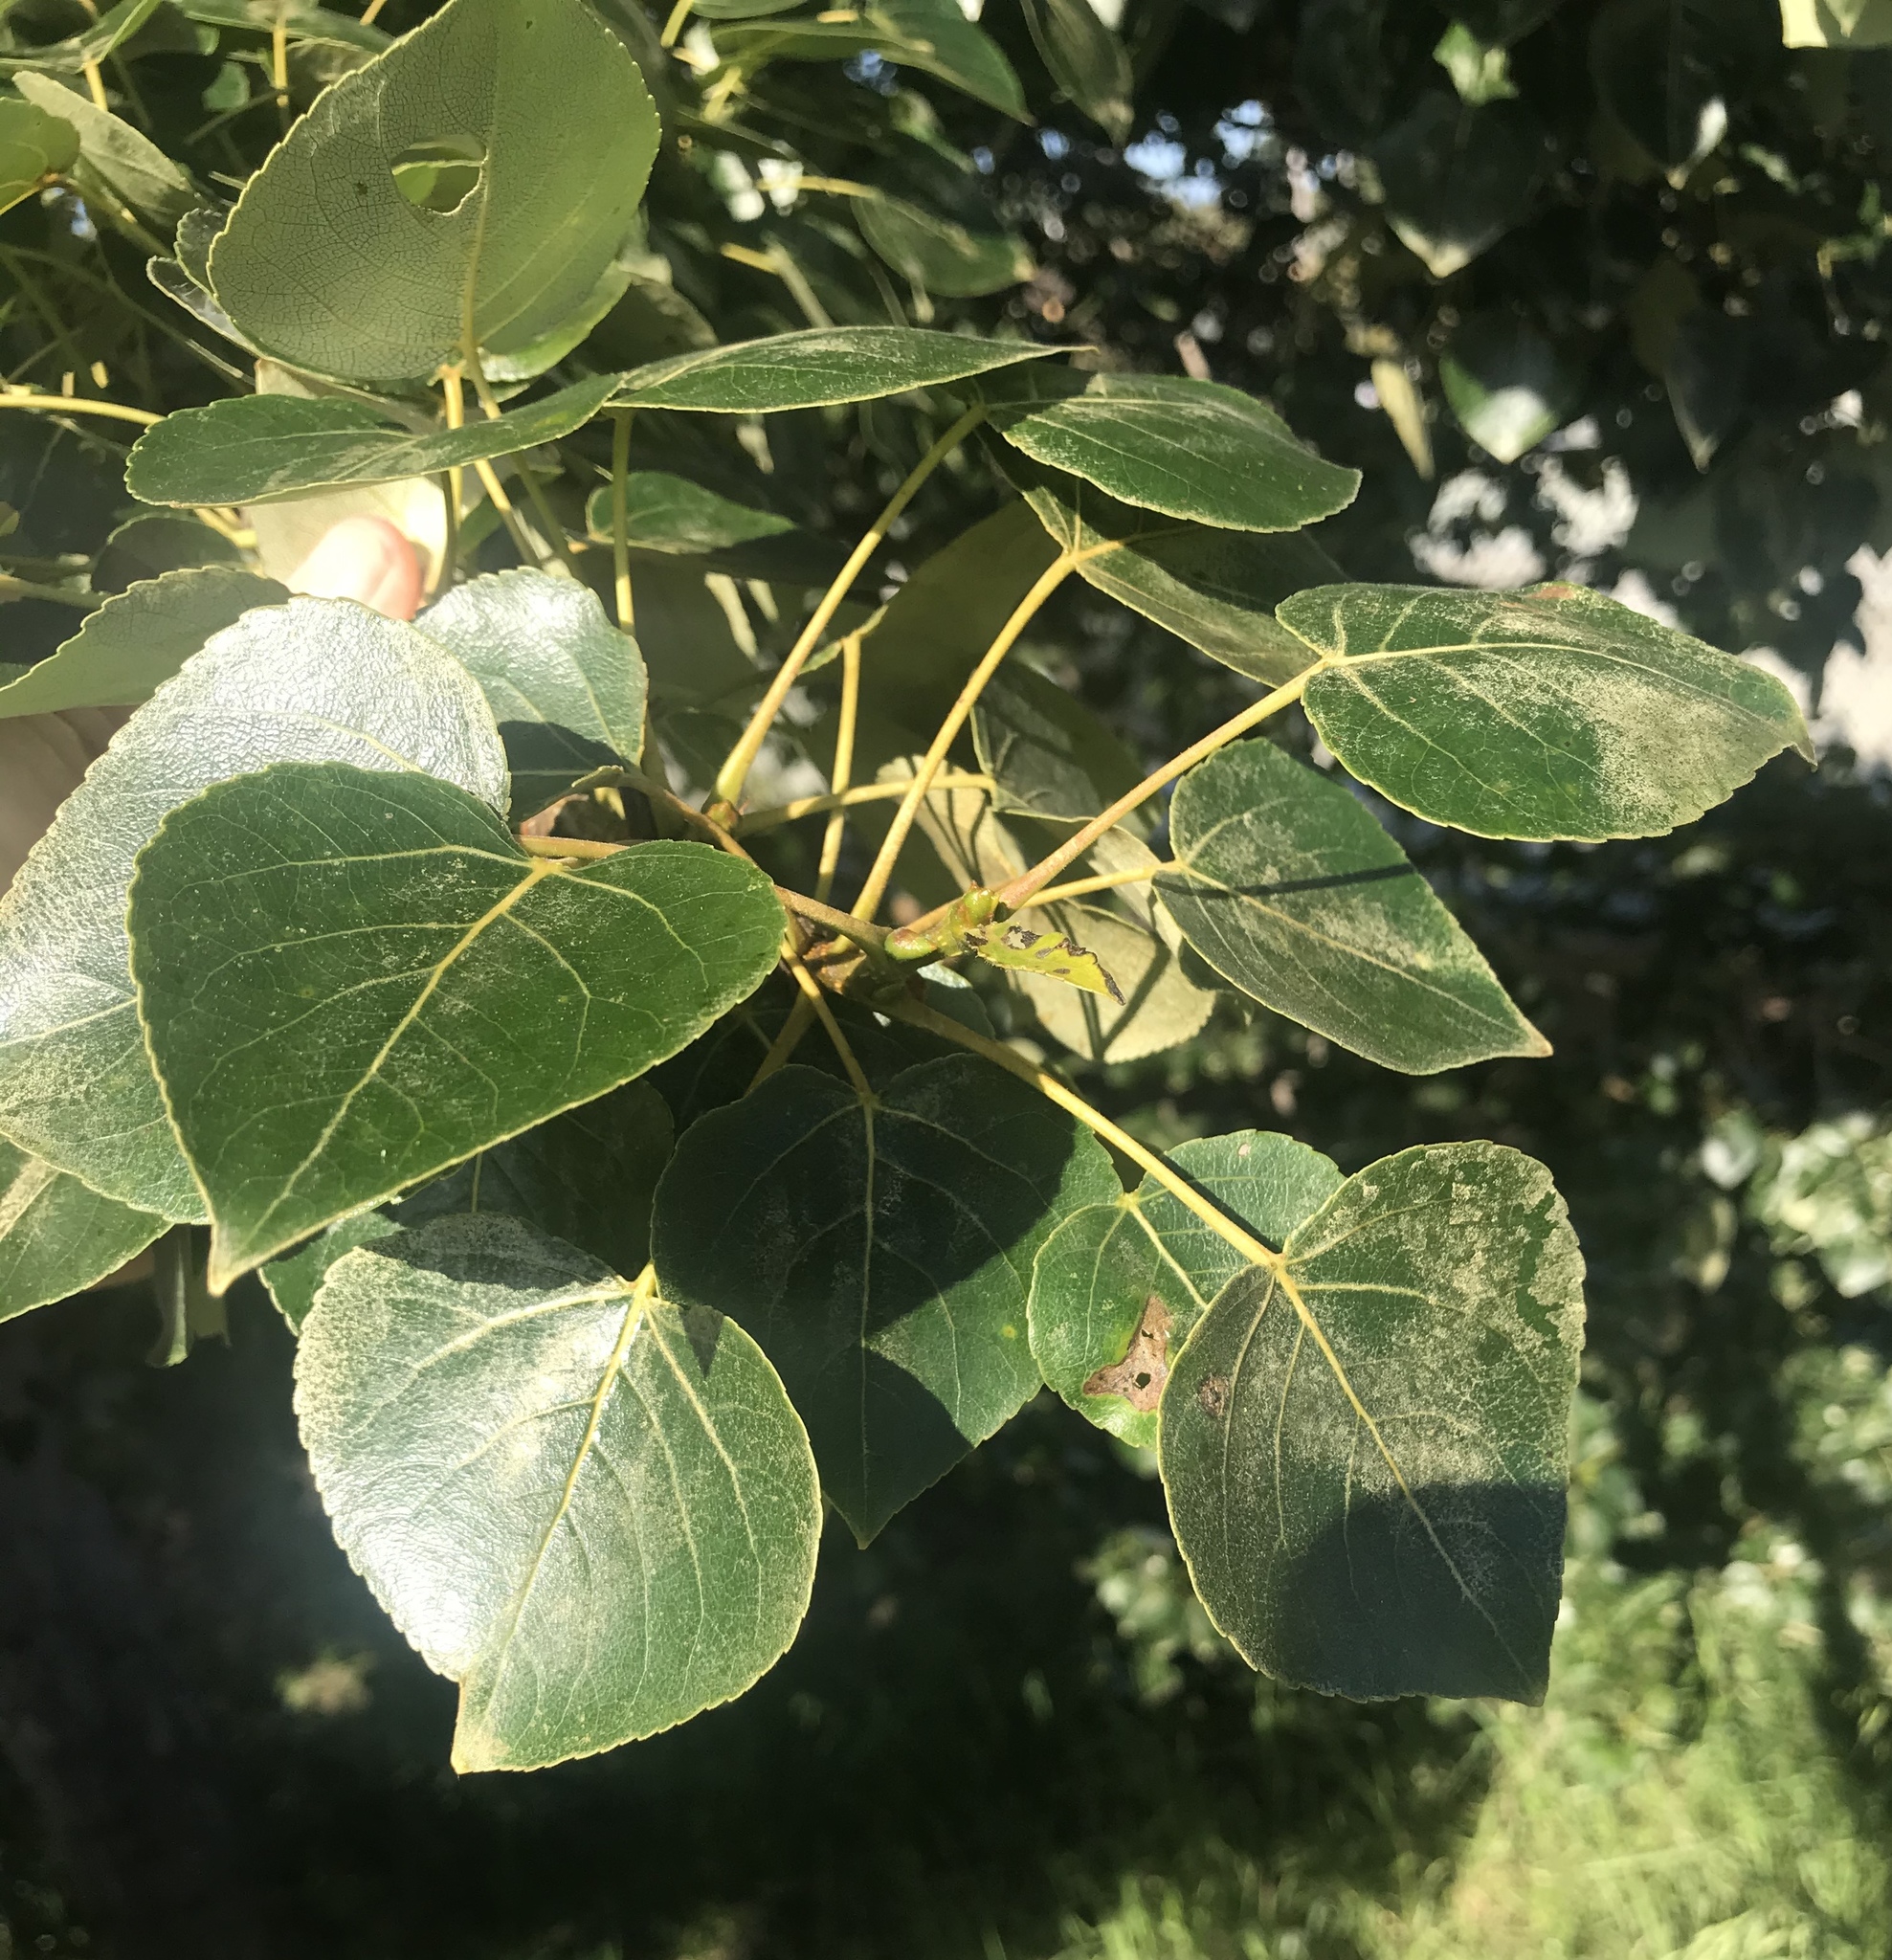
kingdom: Plantae
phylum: Tracheophyta
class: Magnoliopsida
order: Malpighiales
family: Salicaceae
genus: Populus
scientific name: Populus trichocarpa
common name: Black cottonwood
